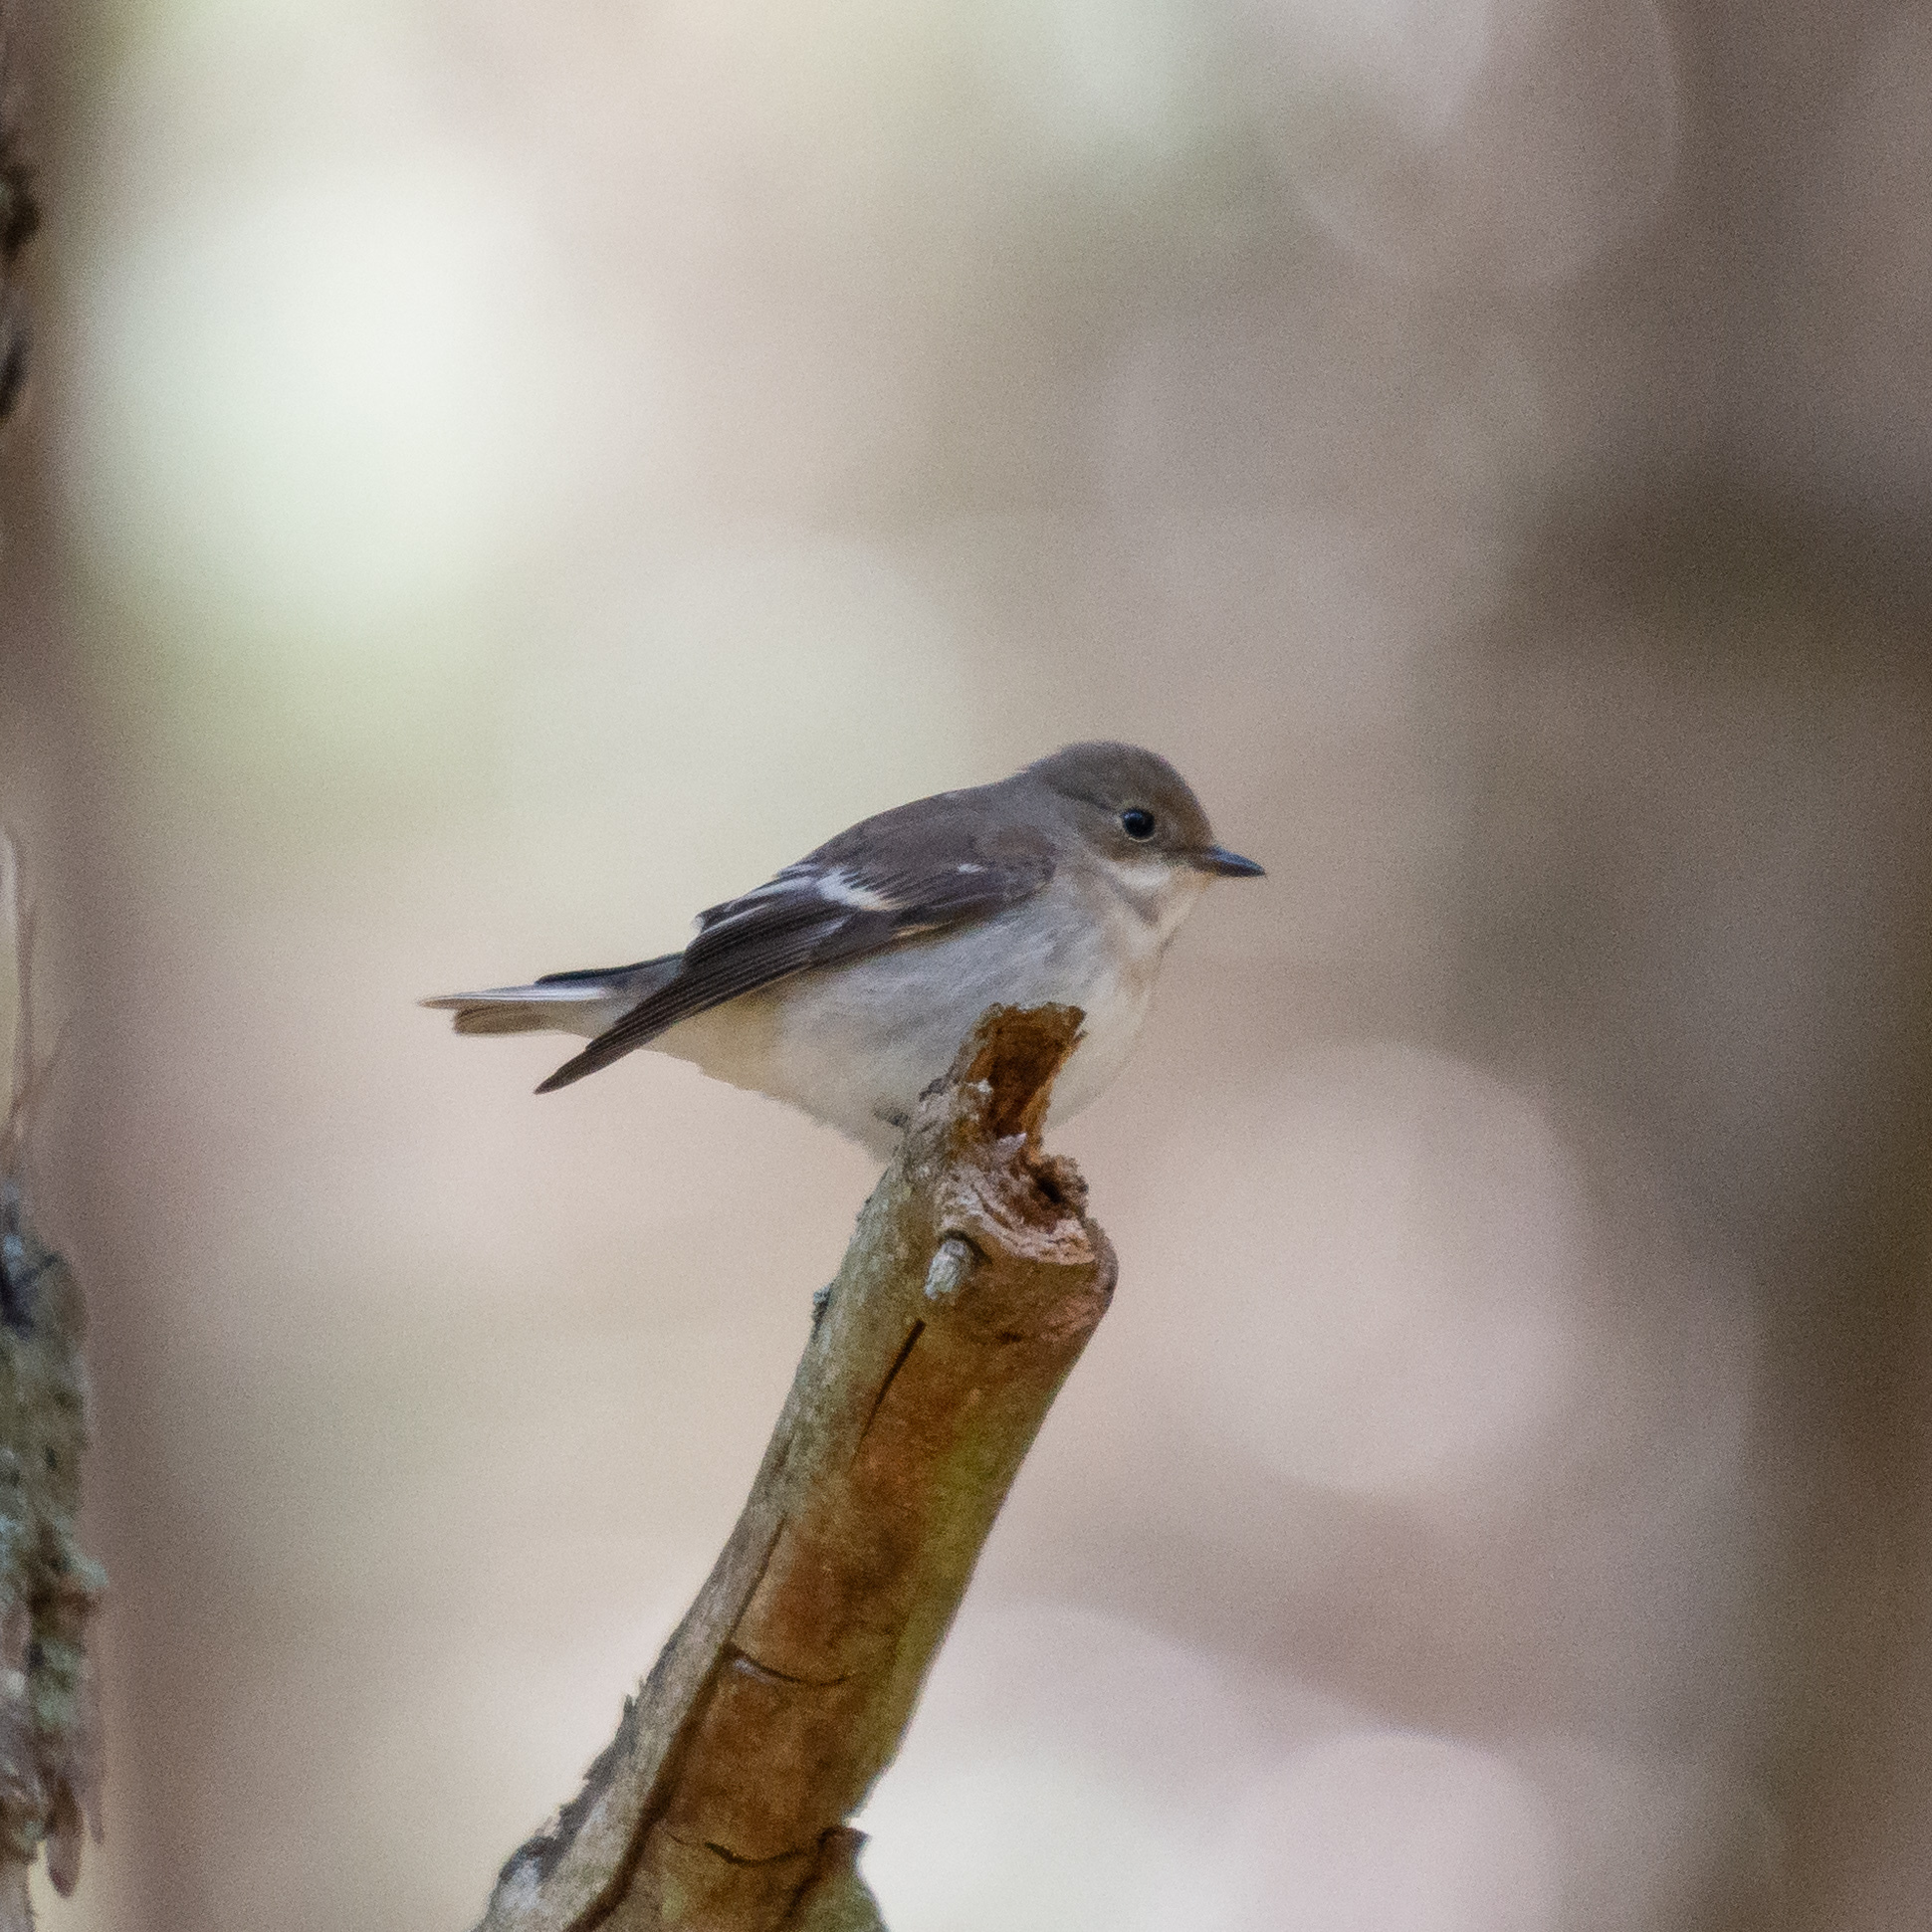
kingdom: Animalia
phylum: Chordata
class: Aves
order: Passeriformes
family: Muscicapidae
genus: Ficedula
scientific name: Ficedula hypoleuca
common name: European pied flycatcher
